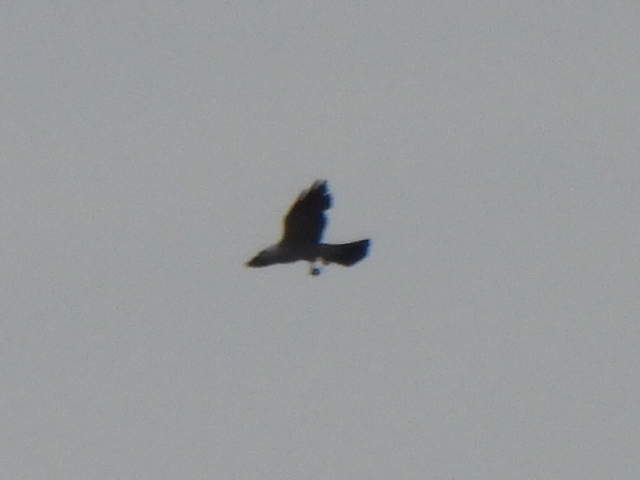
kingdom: Animalia
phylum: Chordata
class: Aves
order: Accipitriformes
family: Accipitridae
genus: Ictinia
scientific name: Ictinia mississippiensis
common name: Mississippi kite
